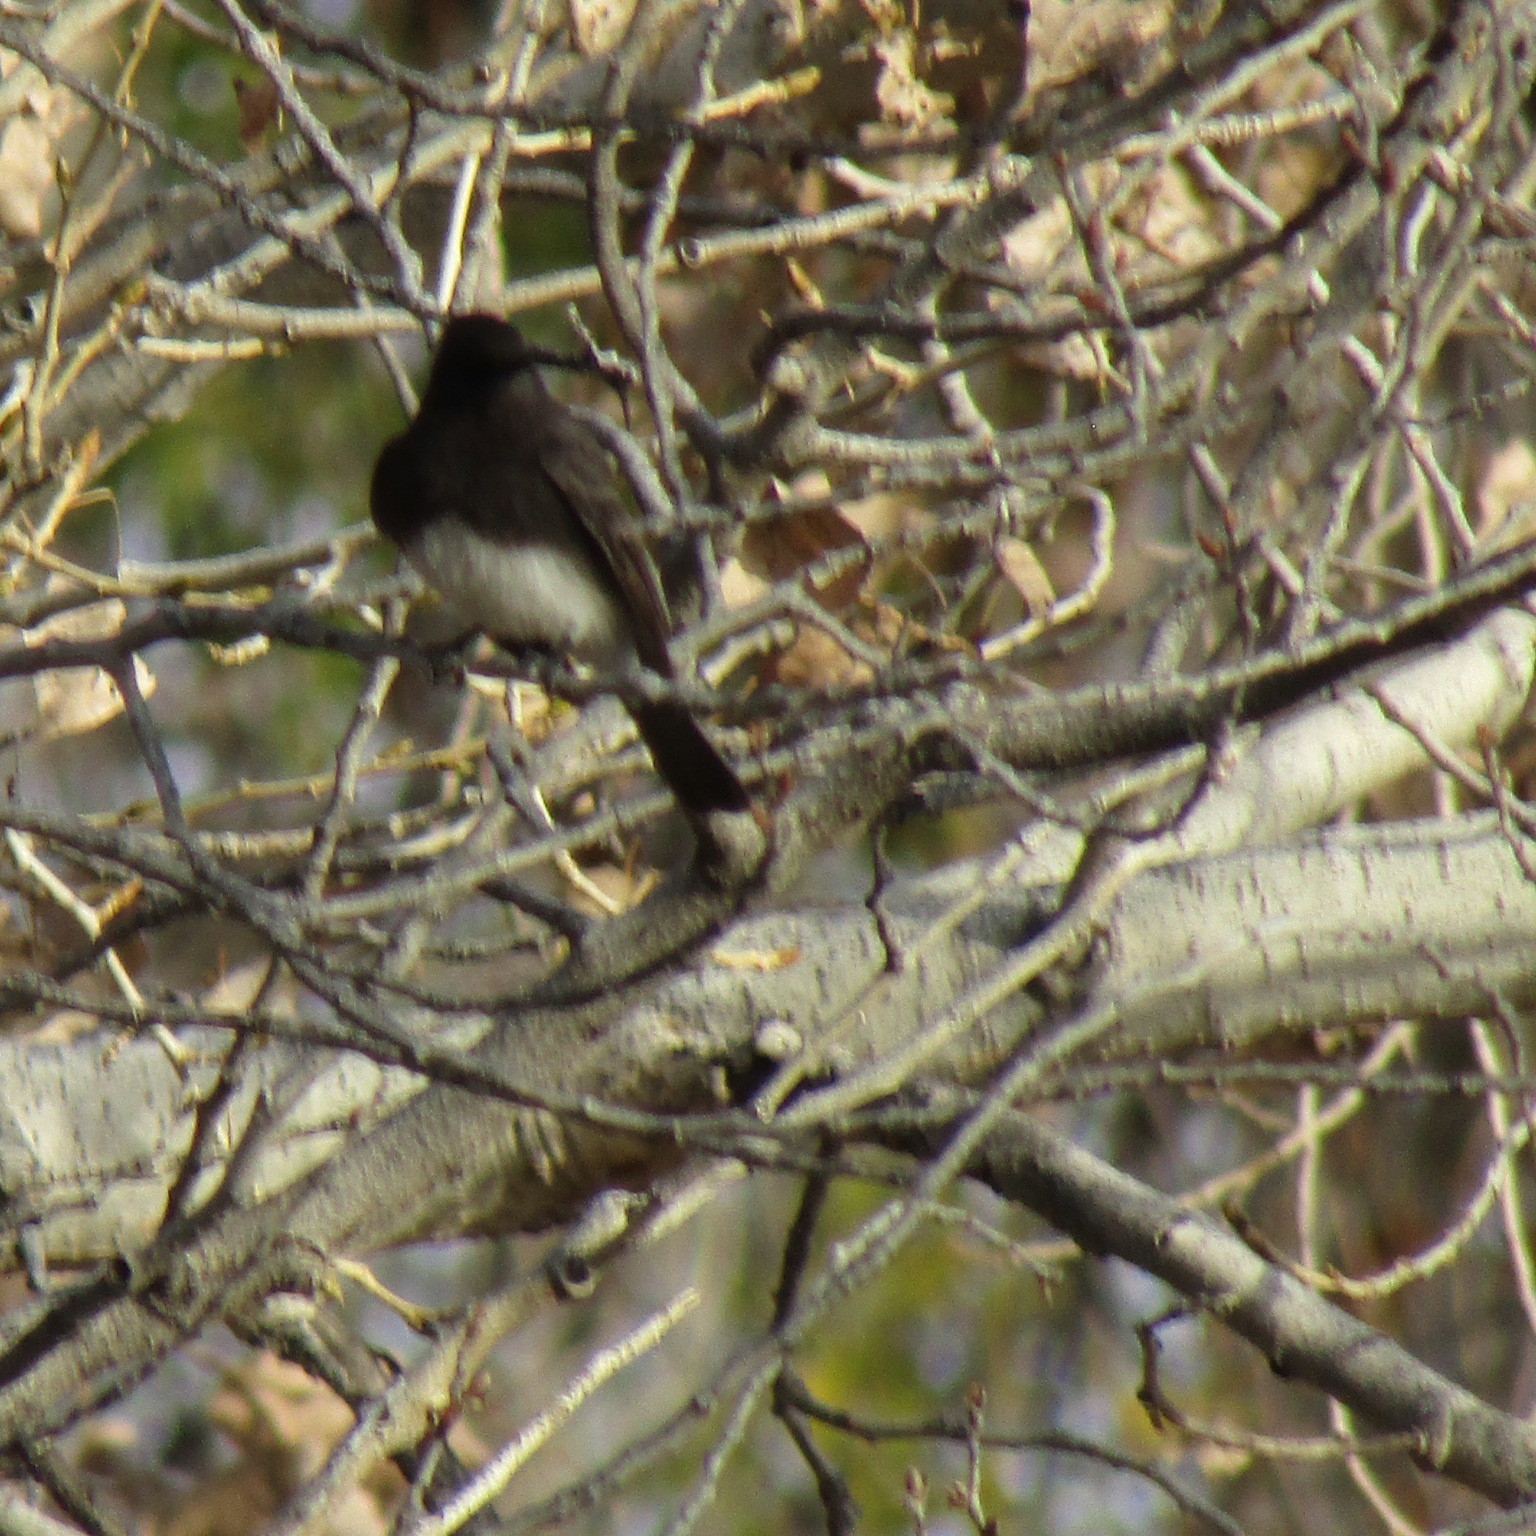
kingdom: Animalia
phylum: Chordata
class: Aves
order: Passeriformes
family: Tyrannidae
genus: Sayornis
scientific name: Sayornis nigricans
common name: Black phoebe
